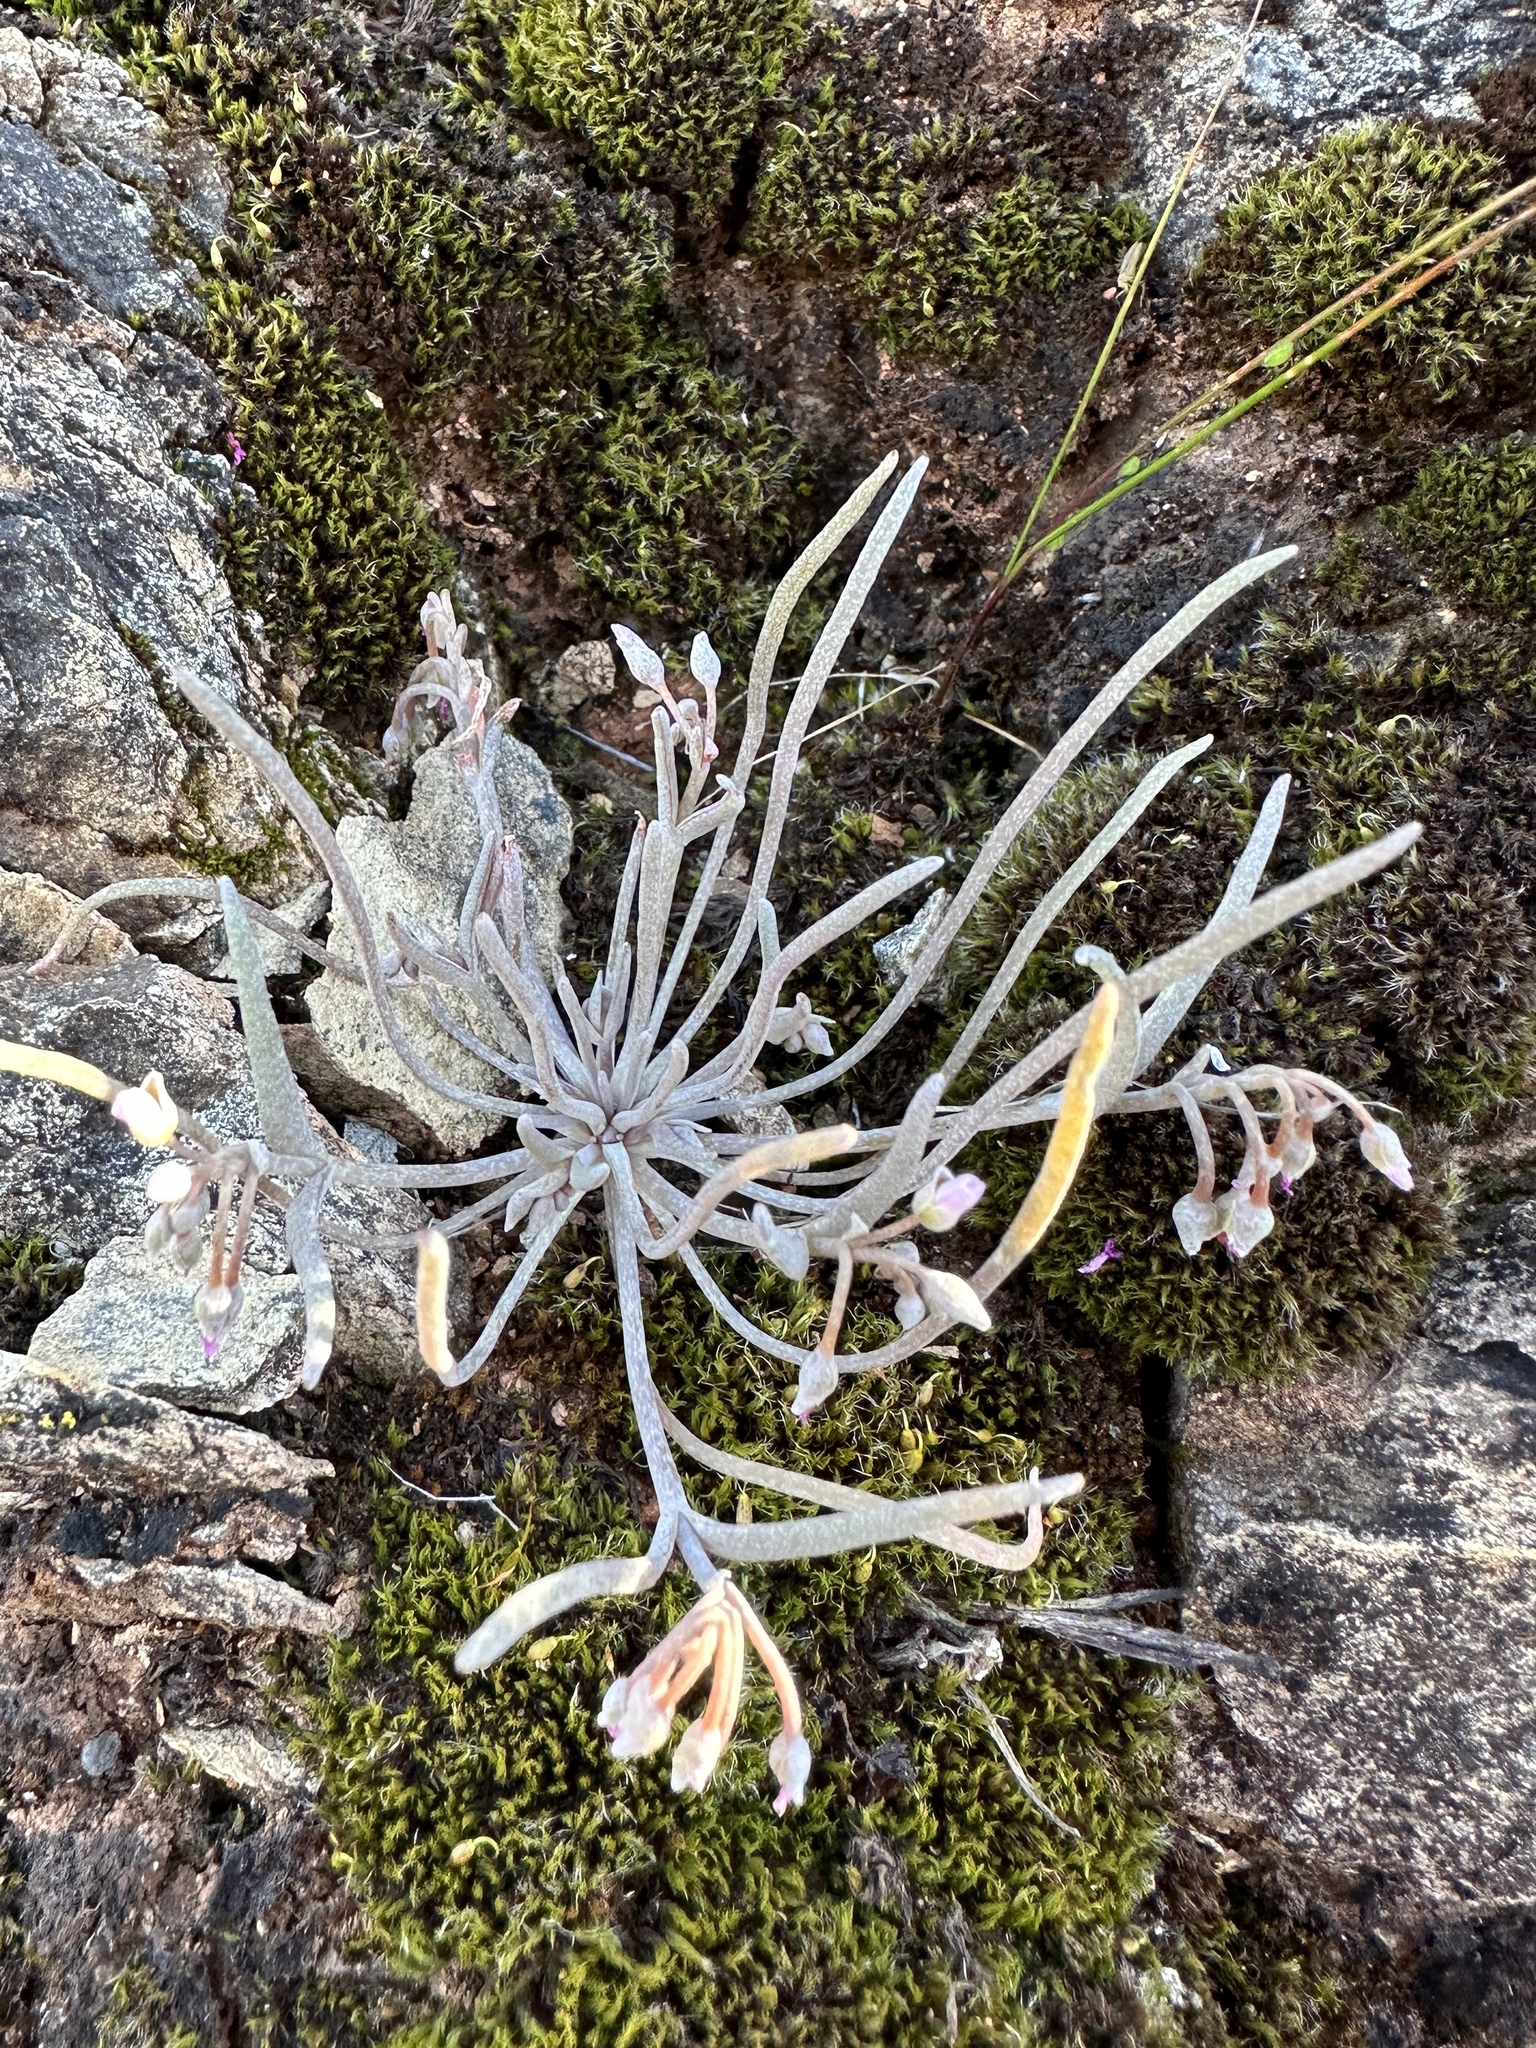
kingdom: Plantae
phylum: Tracheophyta
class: Magnoliopsida
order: Caryophyllales
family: Montiaceae
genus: Claytonia
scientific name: Claytonia exigua
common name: Pale spring beauty
